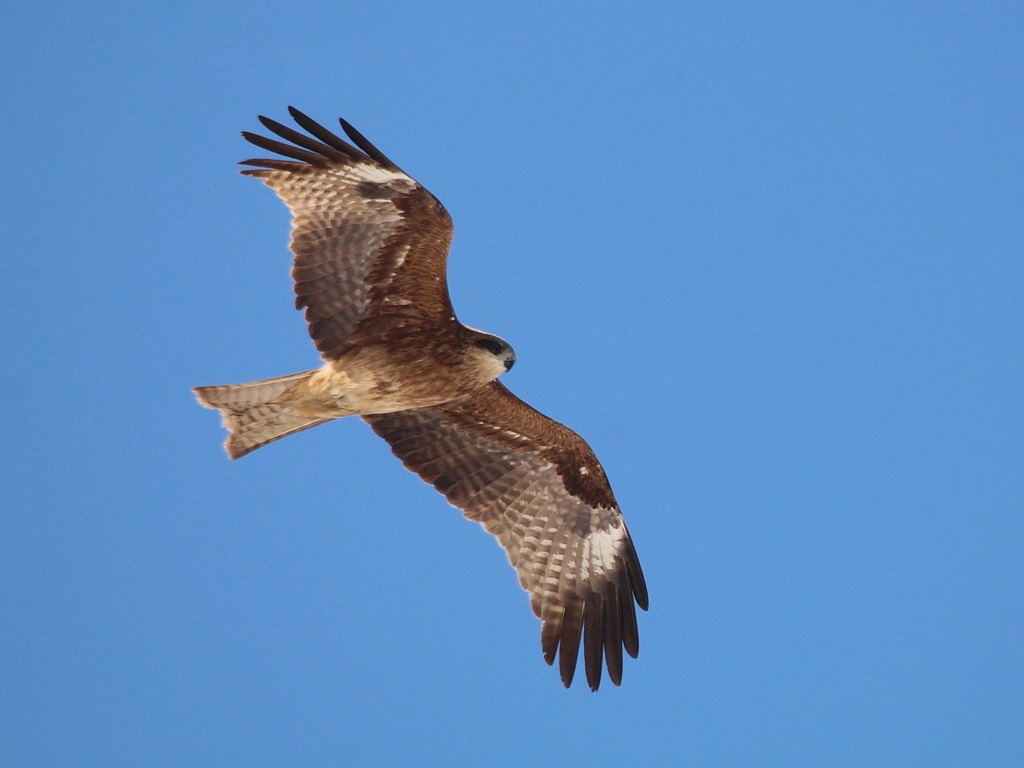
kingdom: Animalia
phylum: Chordata
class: Aves
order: Accipitriformes
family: Accipitridae
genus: Milvus
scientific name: Milvus migrans
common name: Black kite
